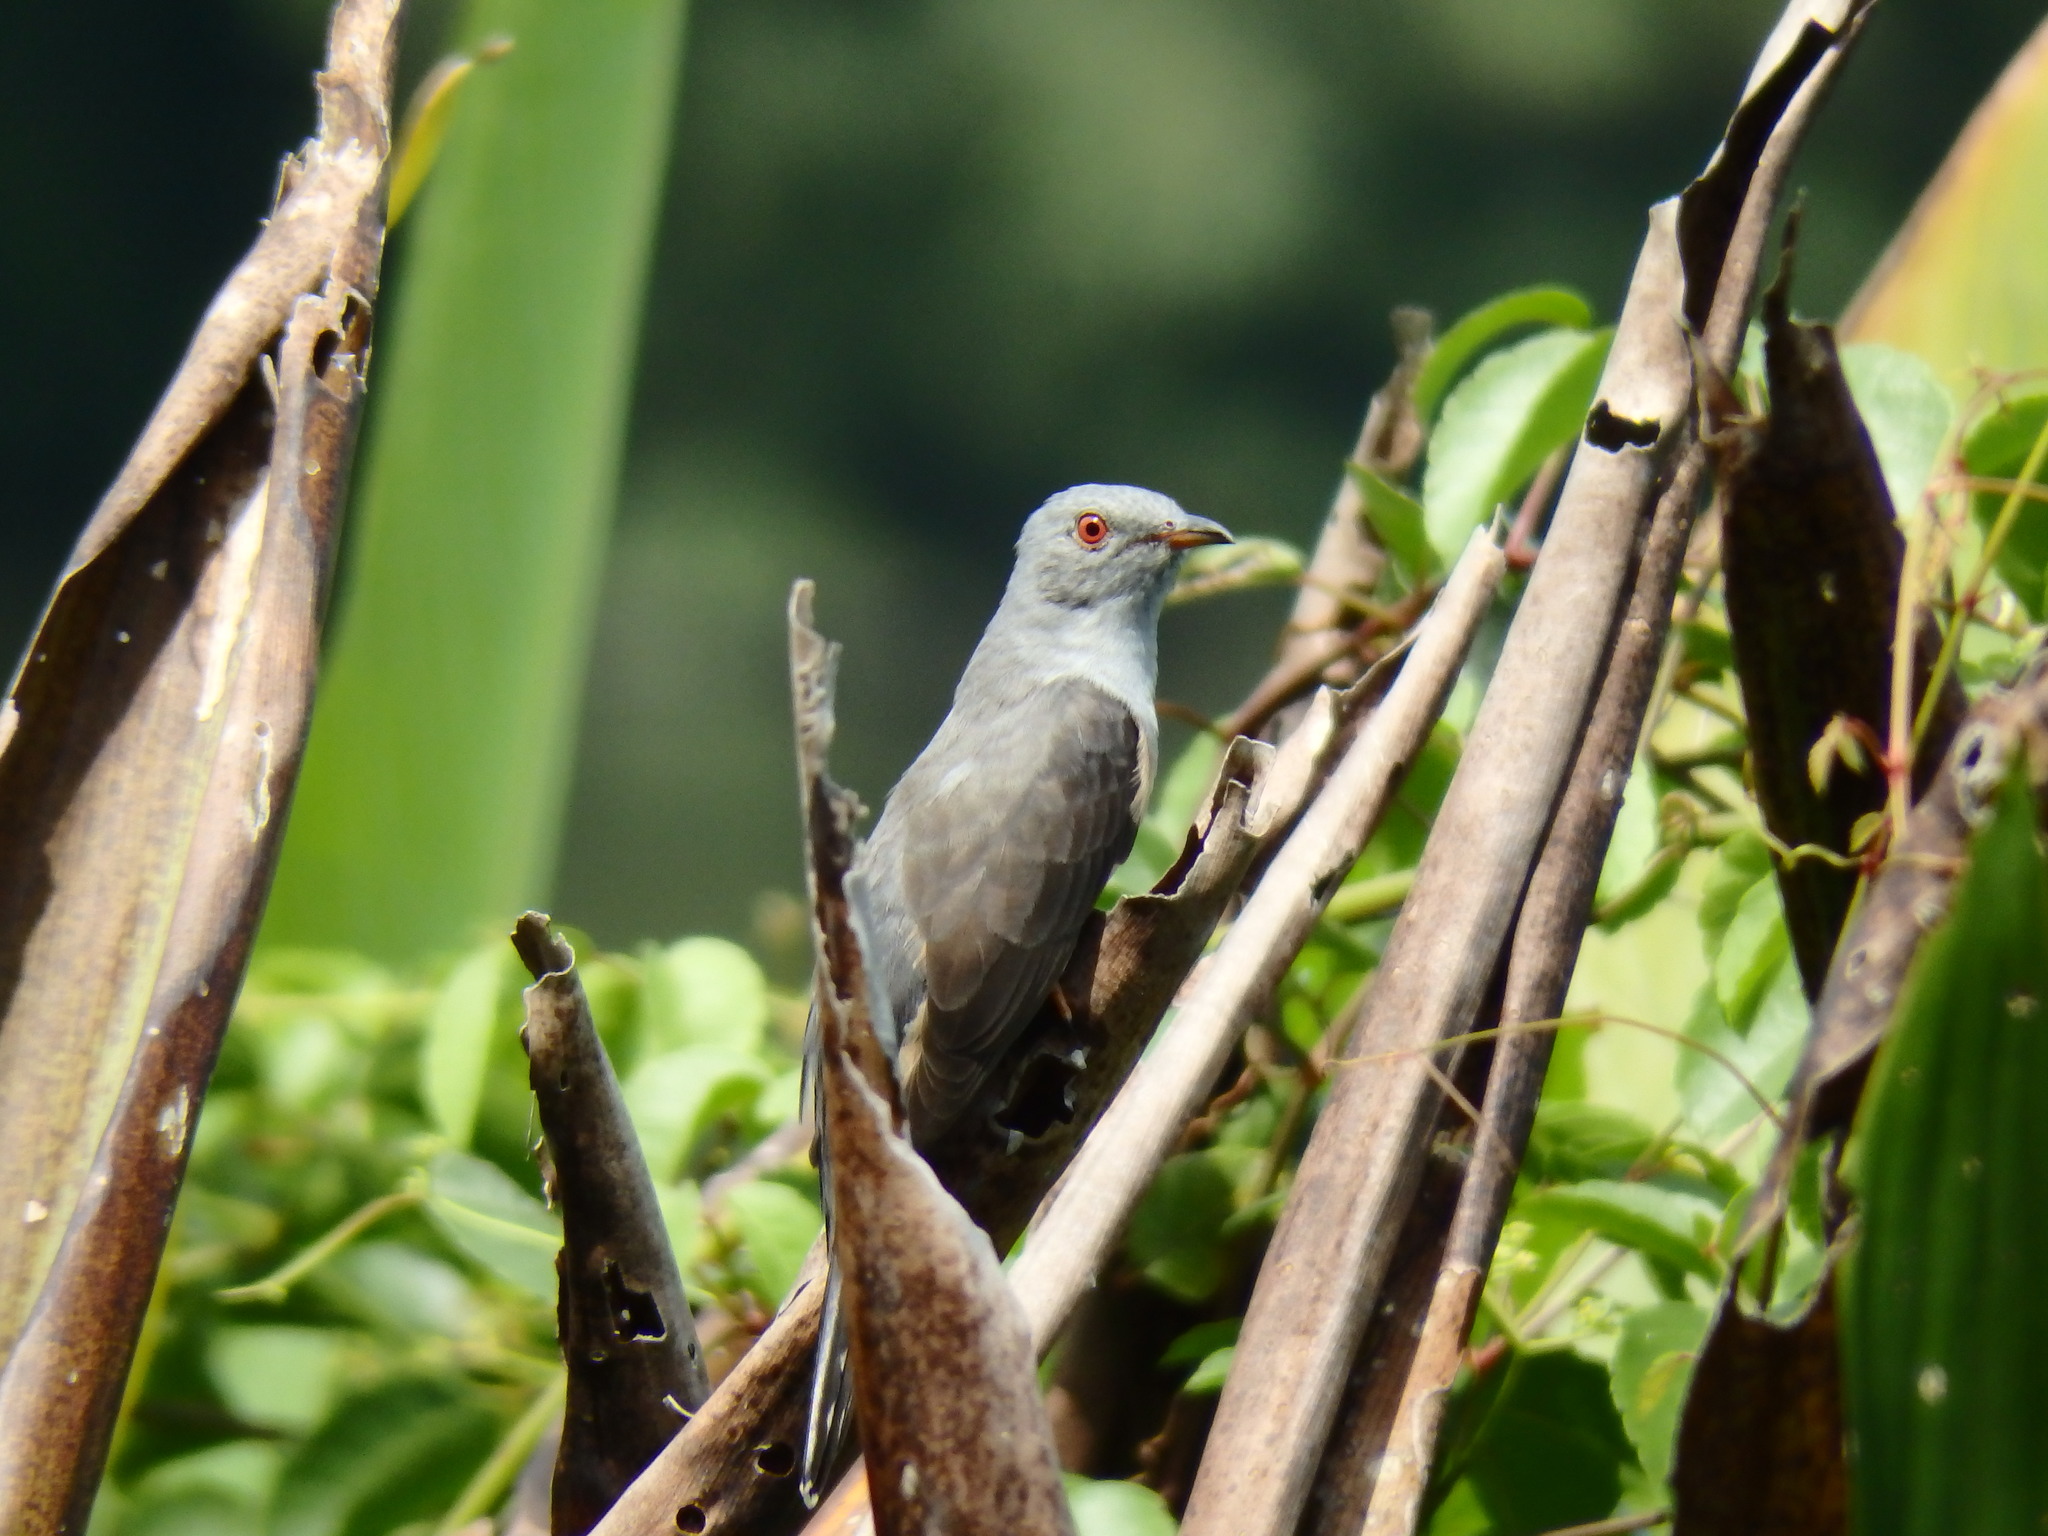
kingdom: Animalia
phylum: Chordata
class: Aves
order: Cuculiformes
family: Cuculidae
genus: Cacomantis
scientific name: Cacomantis merulinus
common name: Plaintive cuckoo
